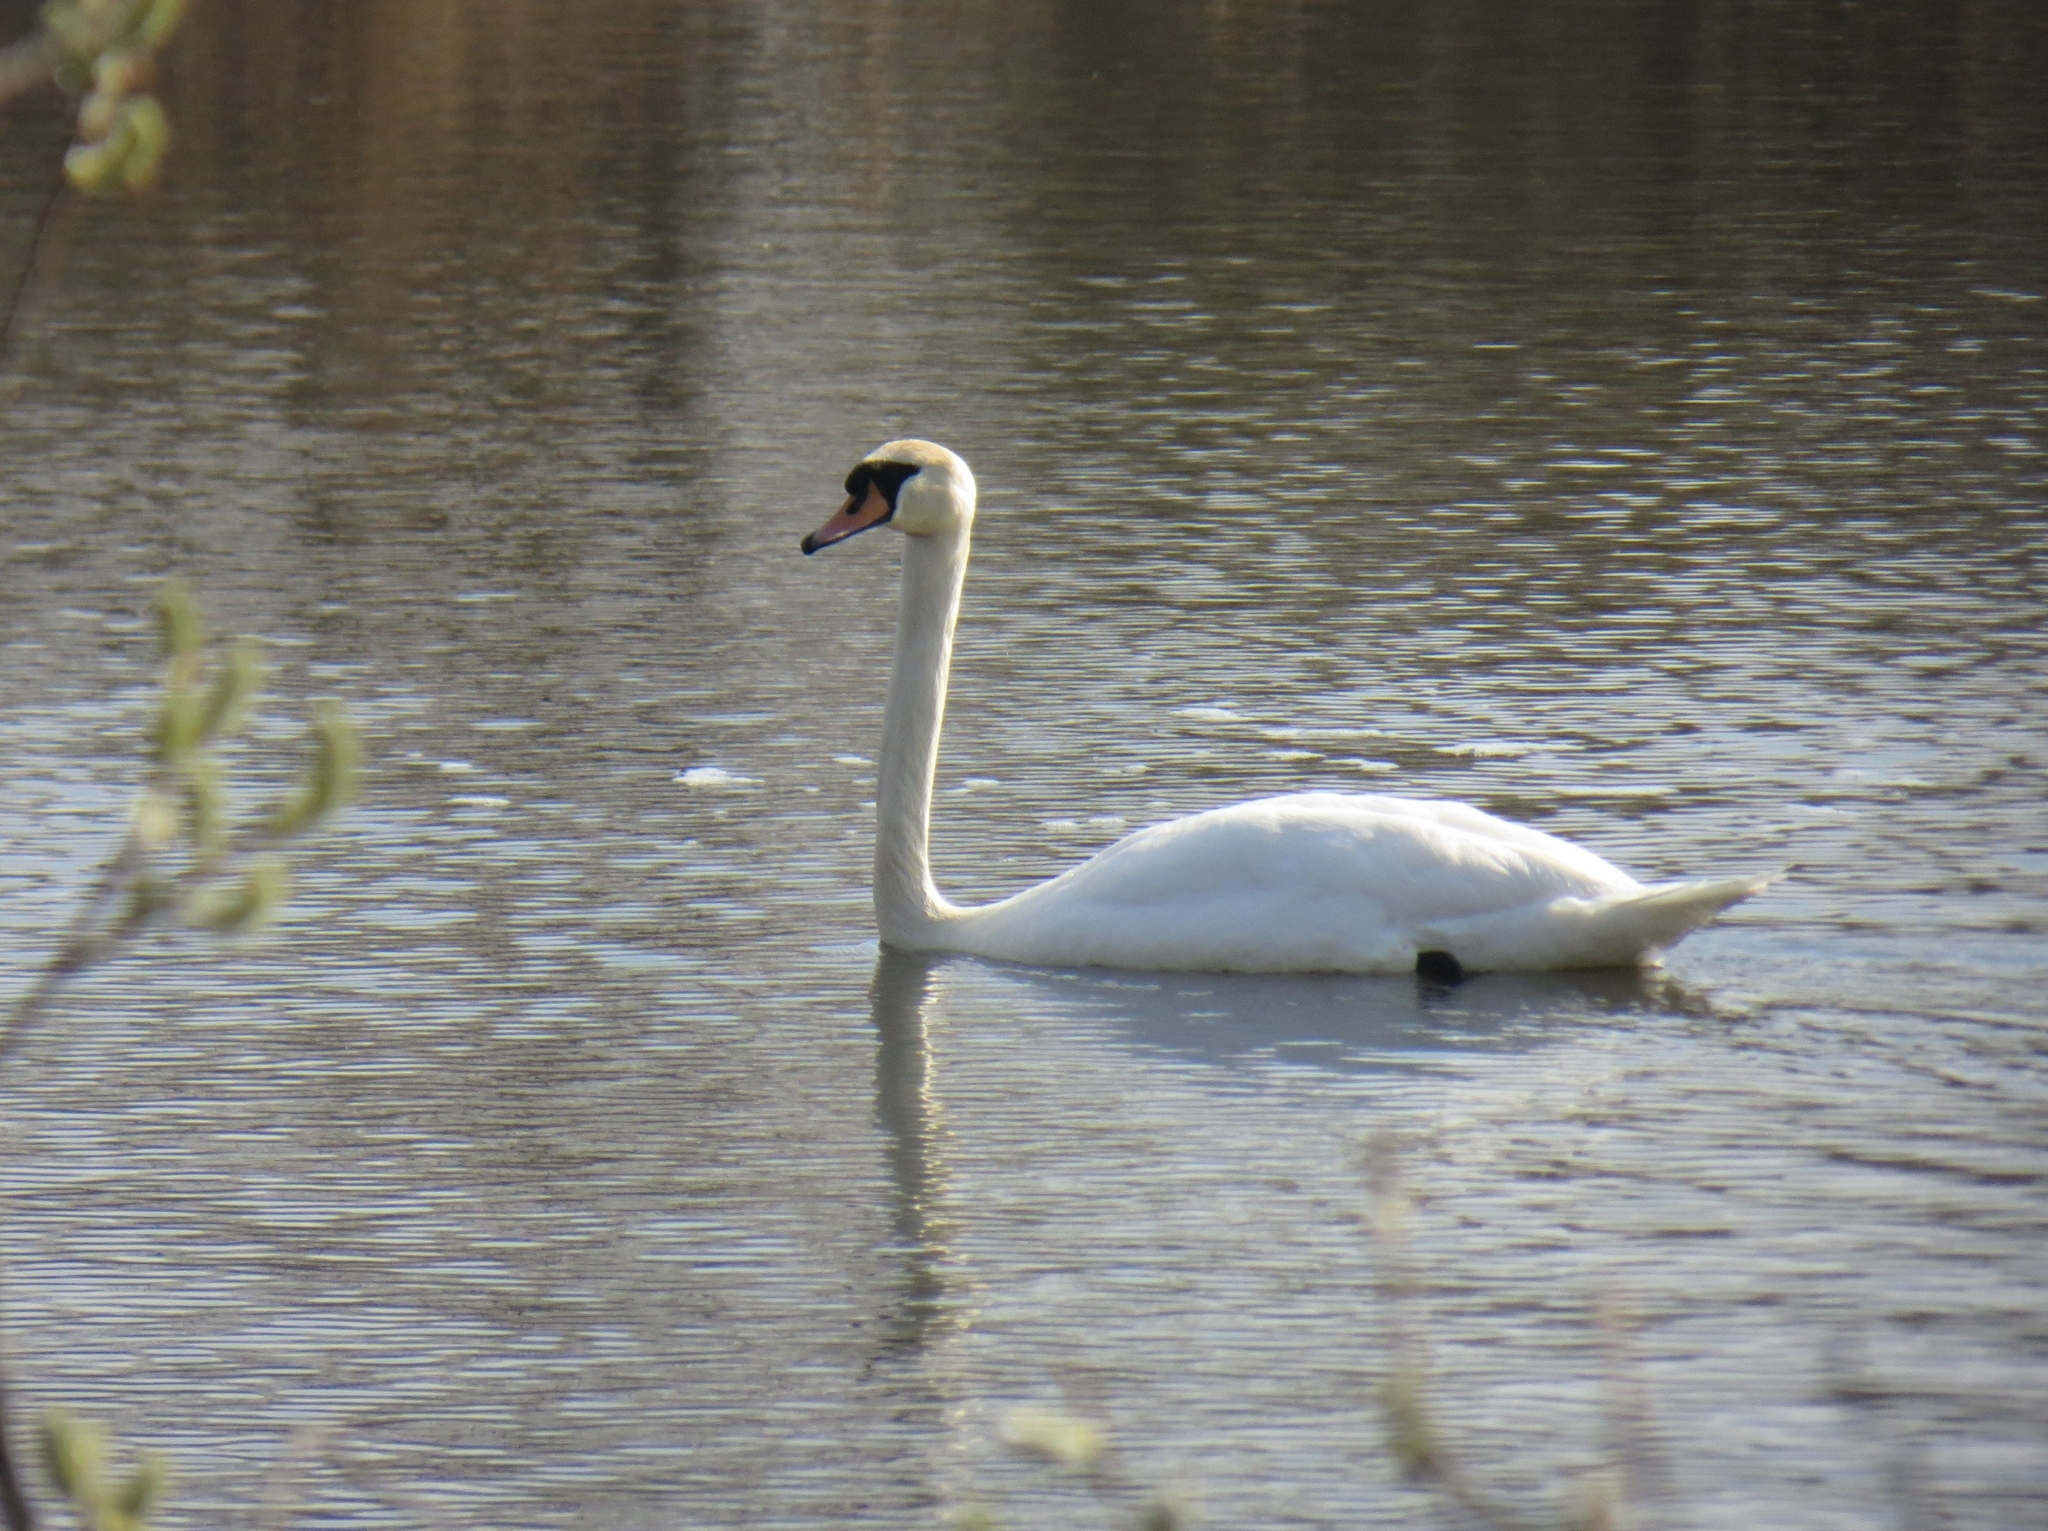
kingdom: Animalia
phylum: Chordata
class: Aves
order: Anseriformes
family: Anatidae
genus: Cygnus
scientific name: Cygnus olor
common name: Mute swan
